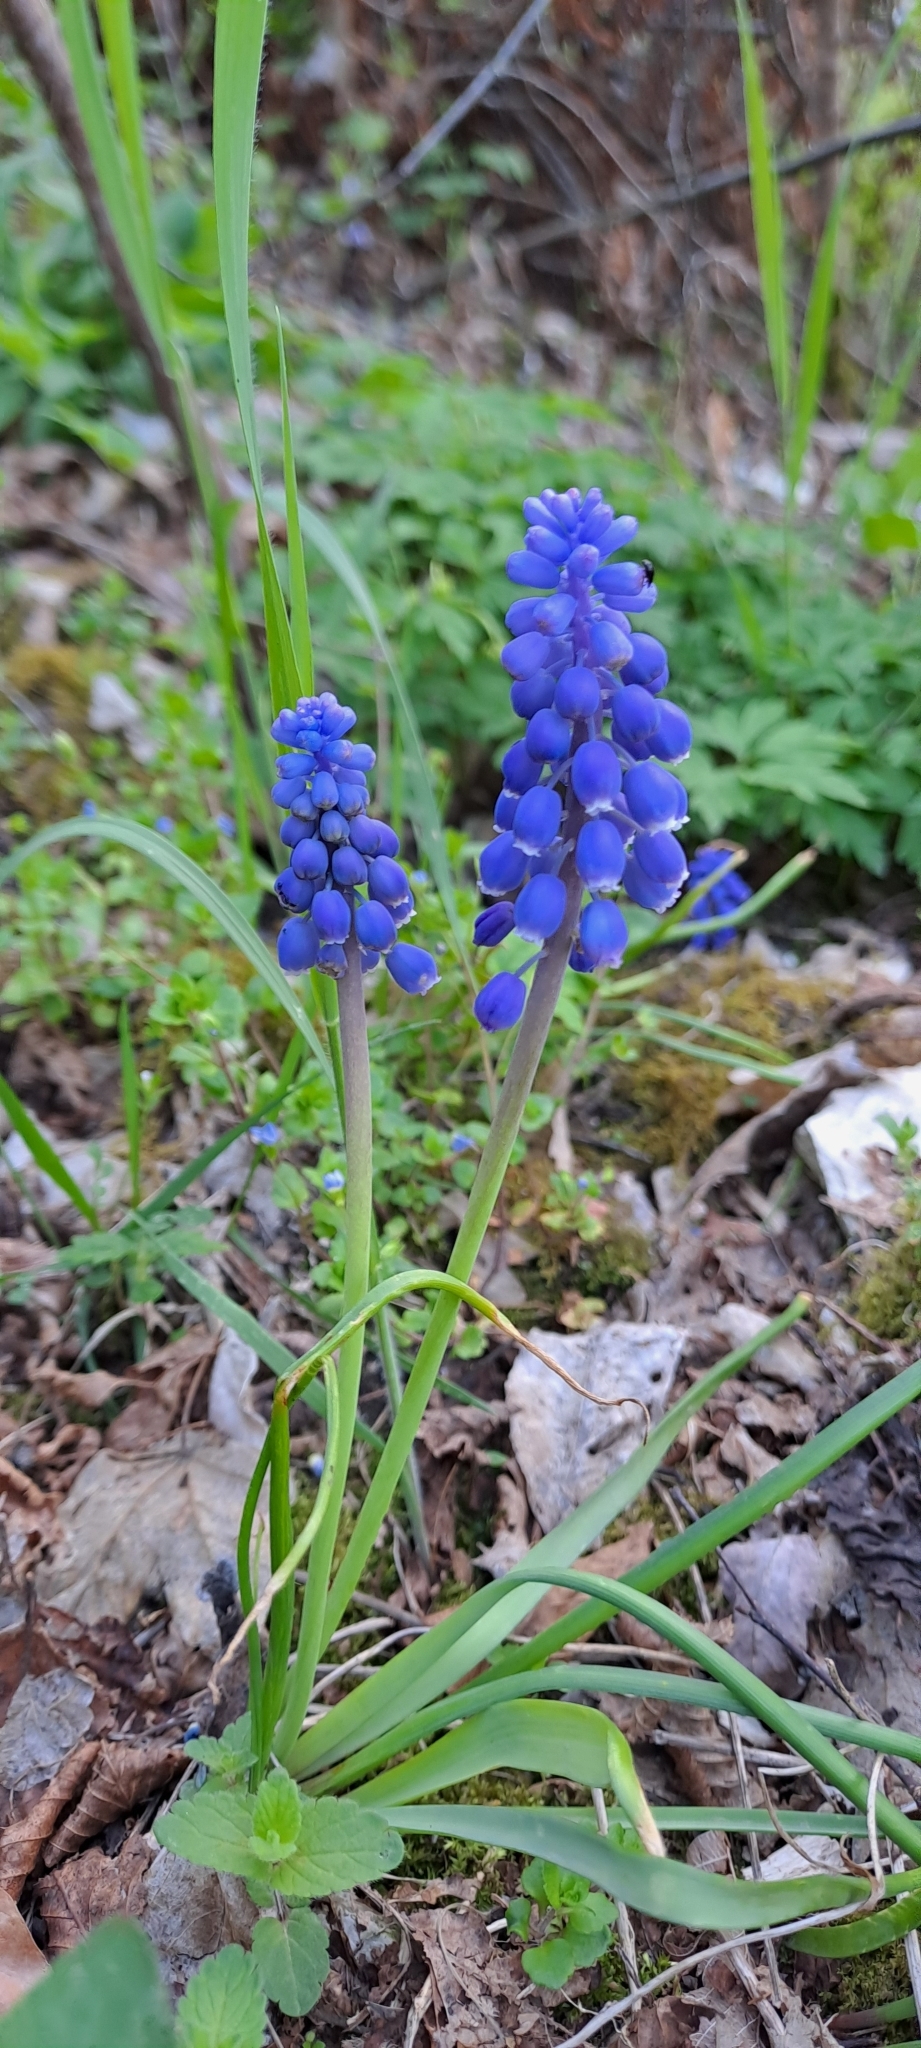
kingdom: Plantae
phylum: Tracheophyta
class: Liliopsida
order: Asparagales
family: Asparagaceae
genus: Muscari
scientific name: Muscari botryoides
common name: Compact grape-hyacinth
